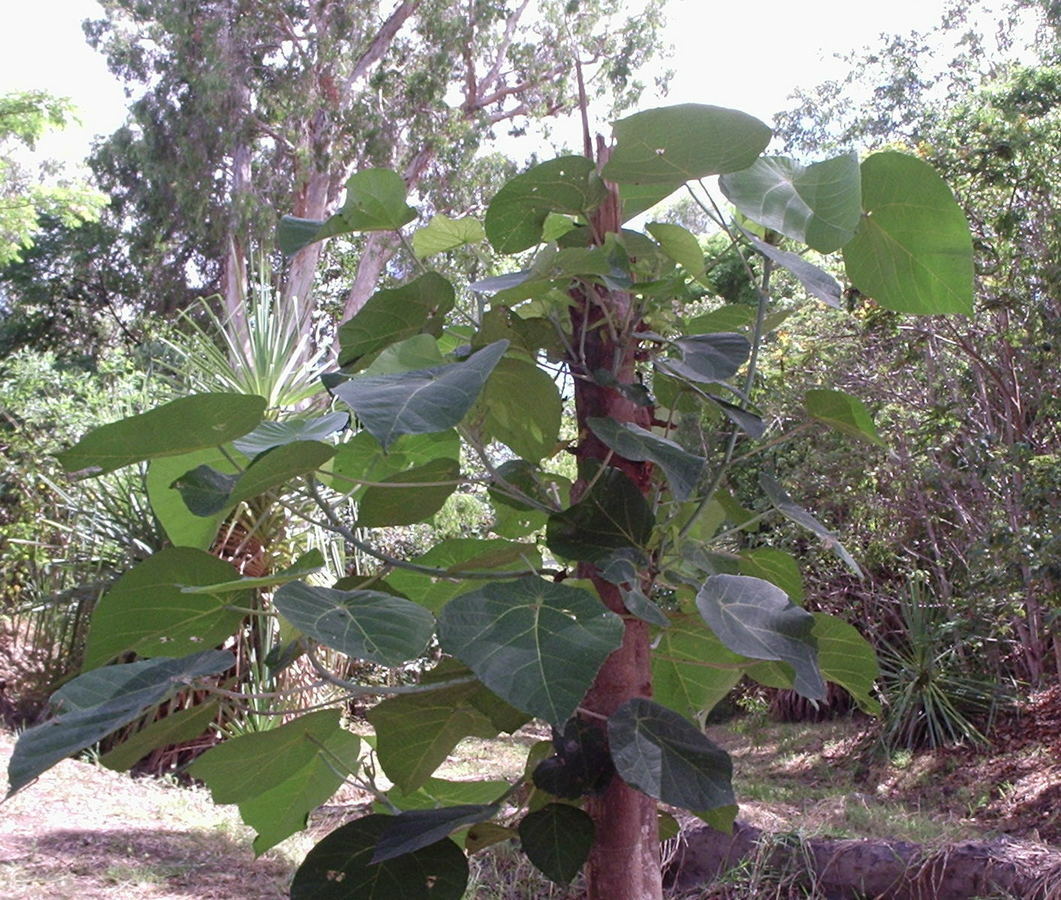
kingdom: Plantae
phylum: Tracheophyta
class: Magnoliopsida
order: Malpighiales
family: Euphorbiaceae
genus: Macaranga
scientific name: Macaranga tanarius
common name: Parasol leaf tree
